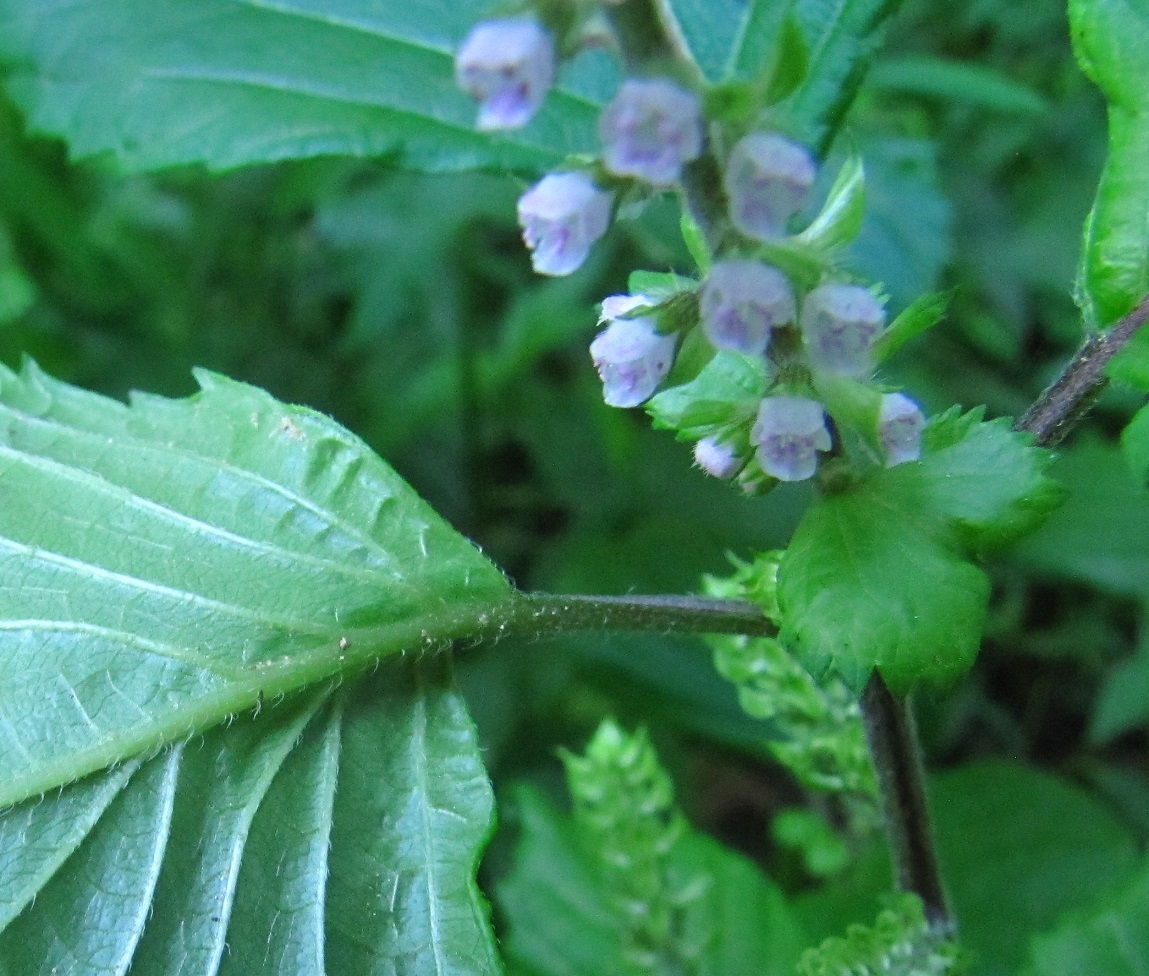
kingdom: Plantae
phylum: Tracheophyta
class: Magnoliopsida
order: Lamiales
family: Lamiaceae
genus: Perilla
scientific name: Perilla frutescens
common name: Perilla
